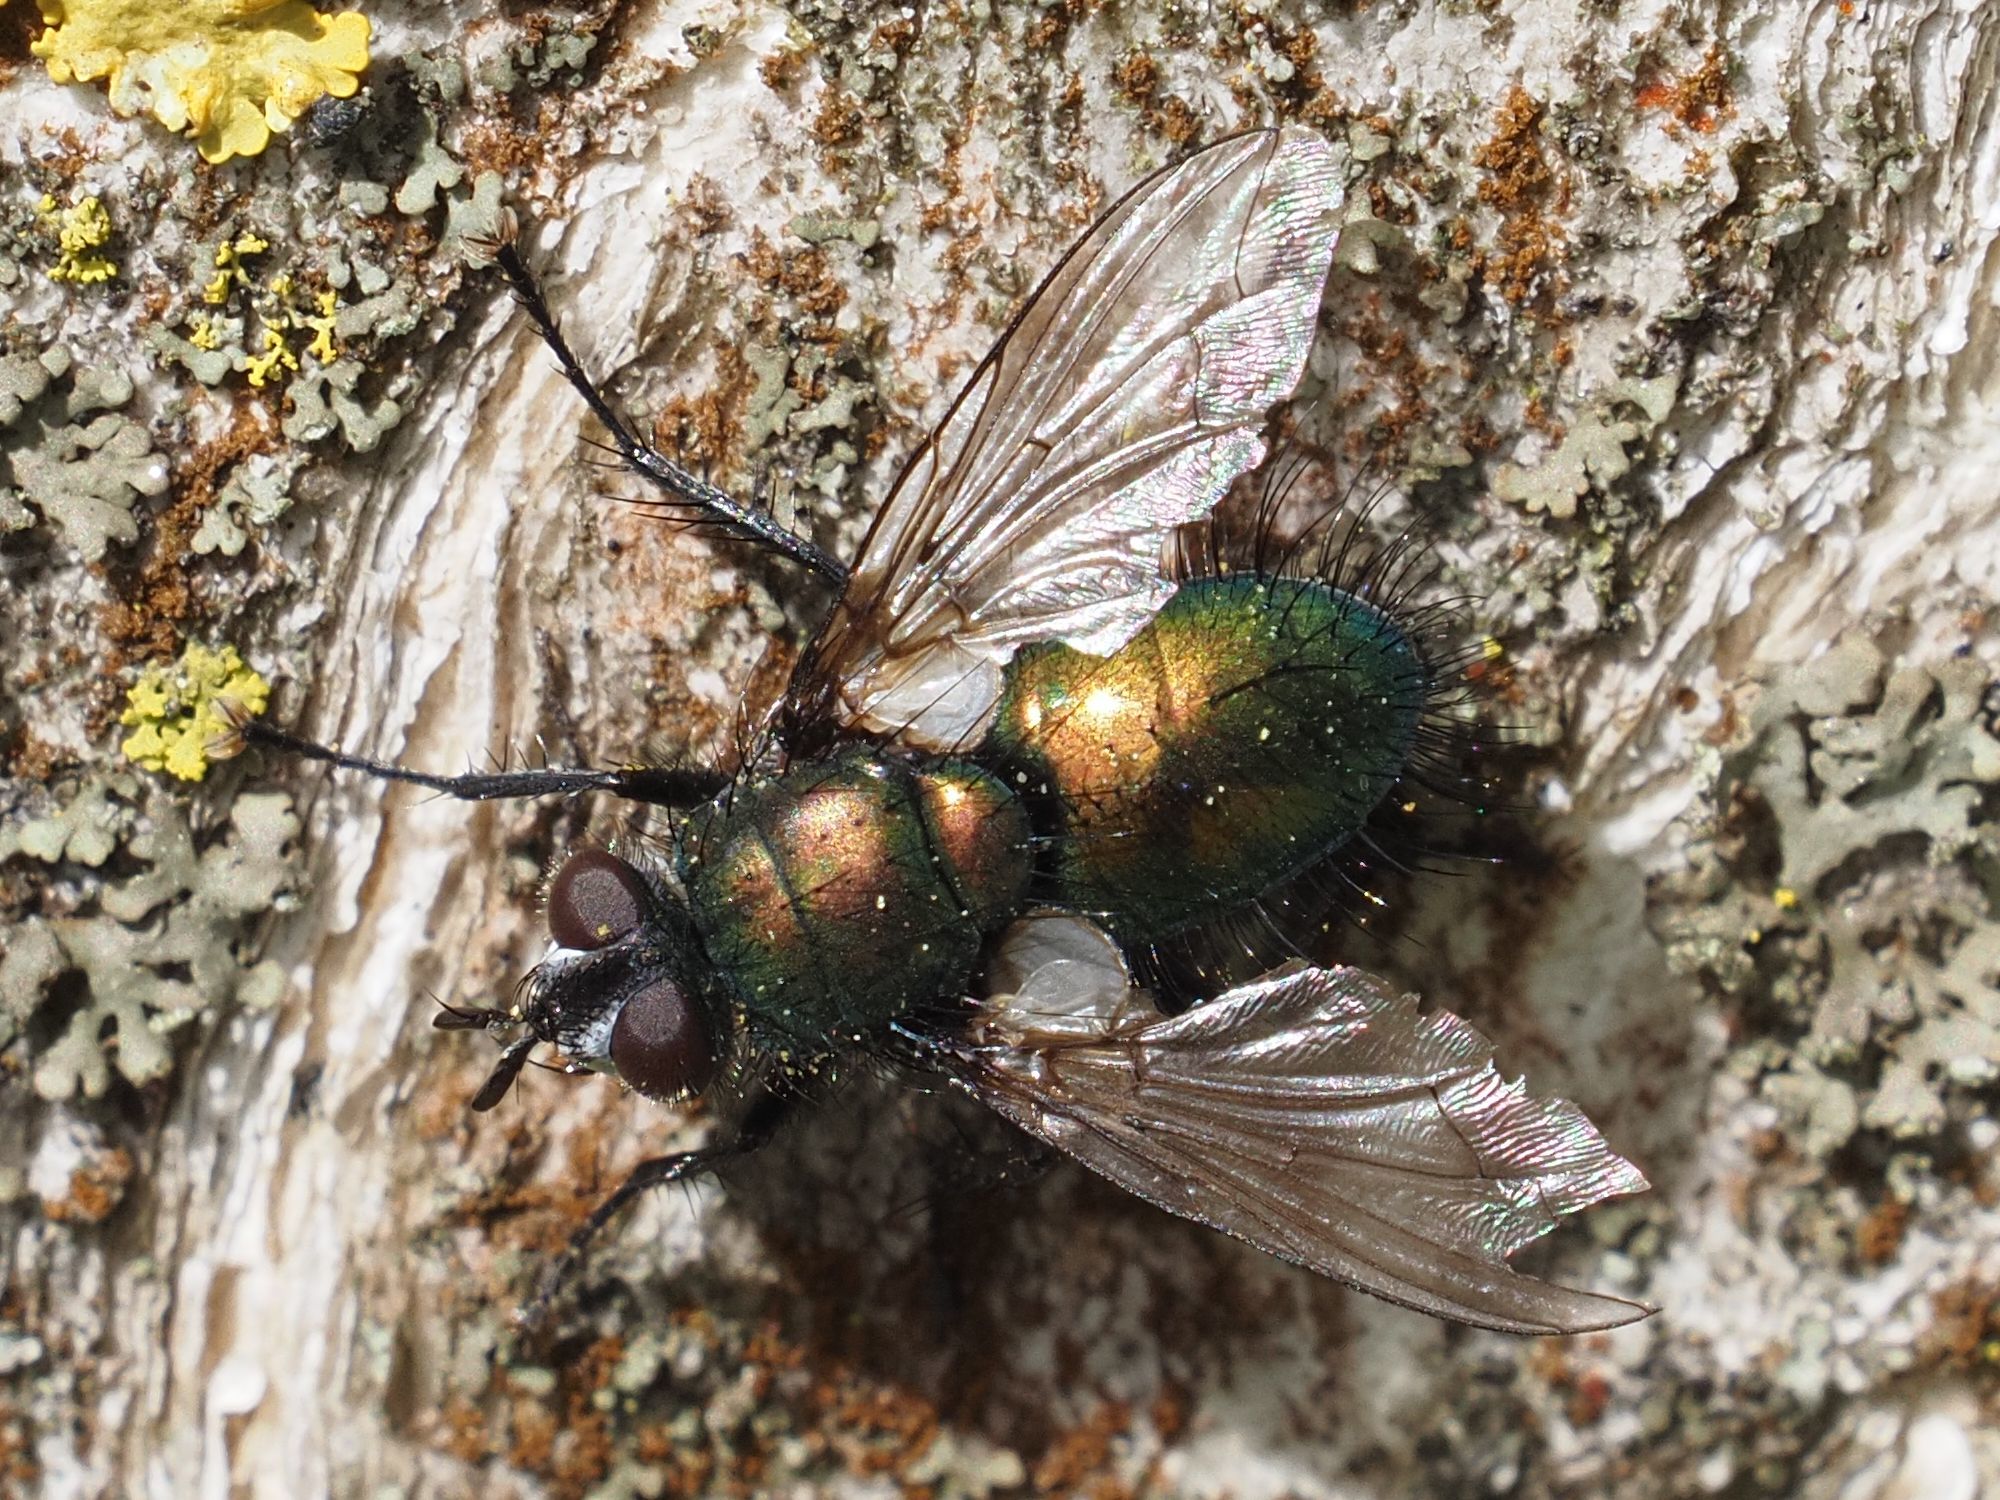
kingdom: Animalia
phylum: Arthropoda
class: Insecta
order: Diptera
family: Tachinidae
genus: Gymnocheta
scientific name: Gymnocheta viridis
